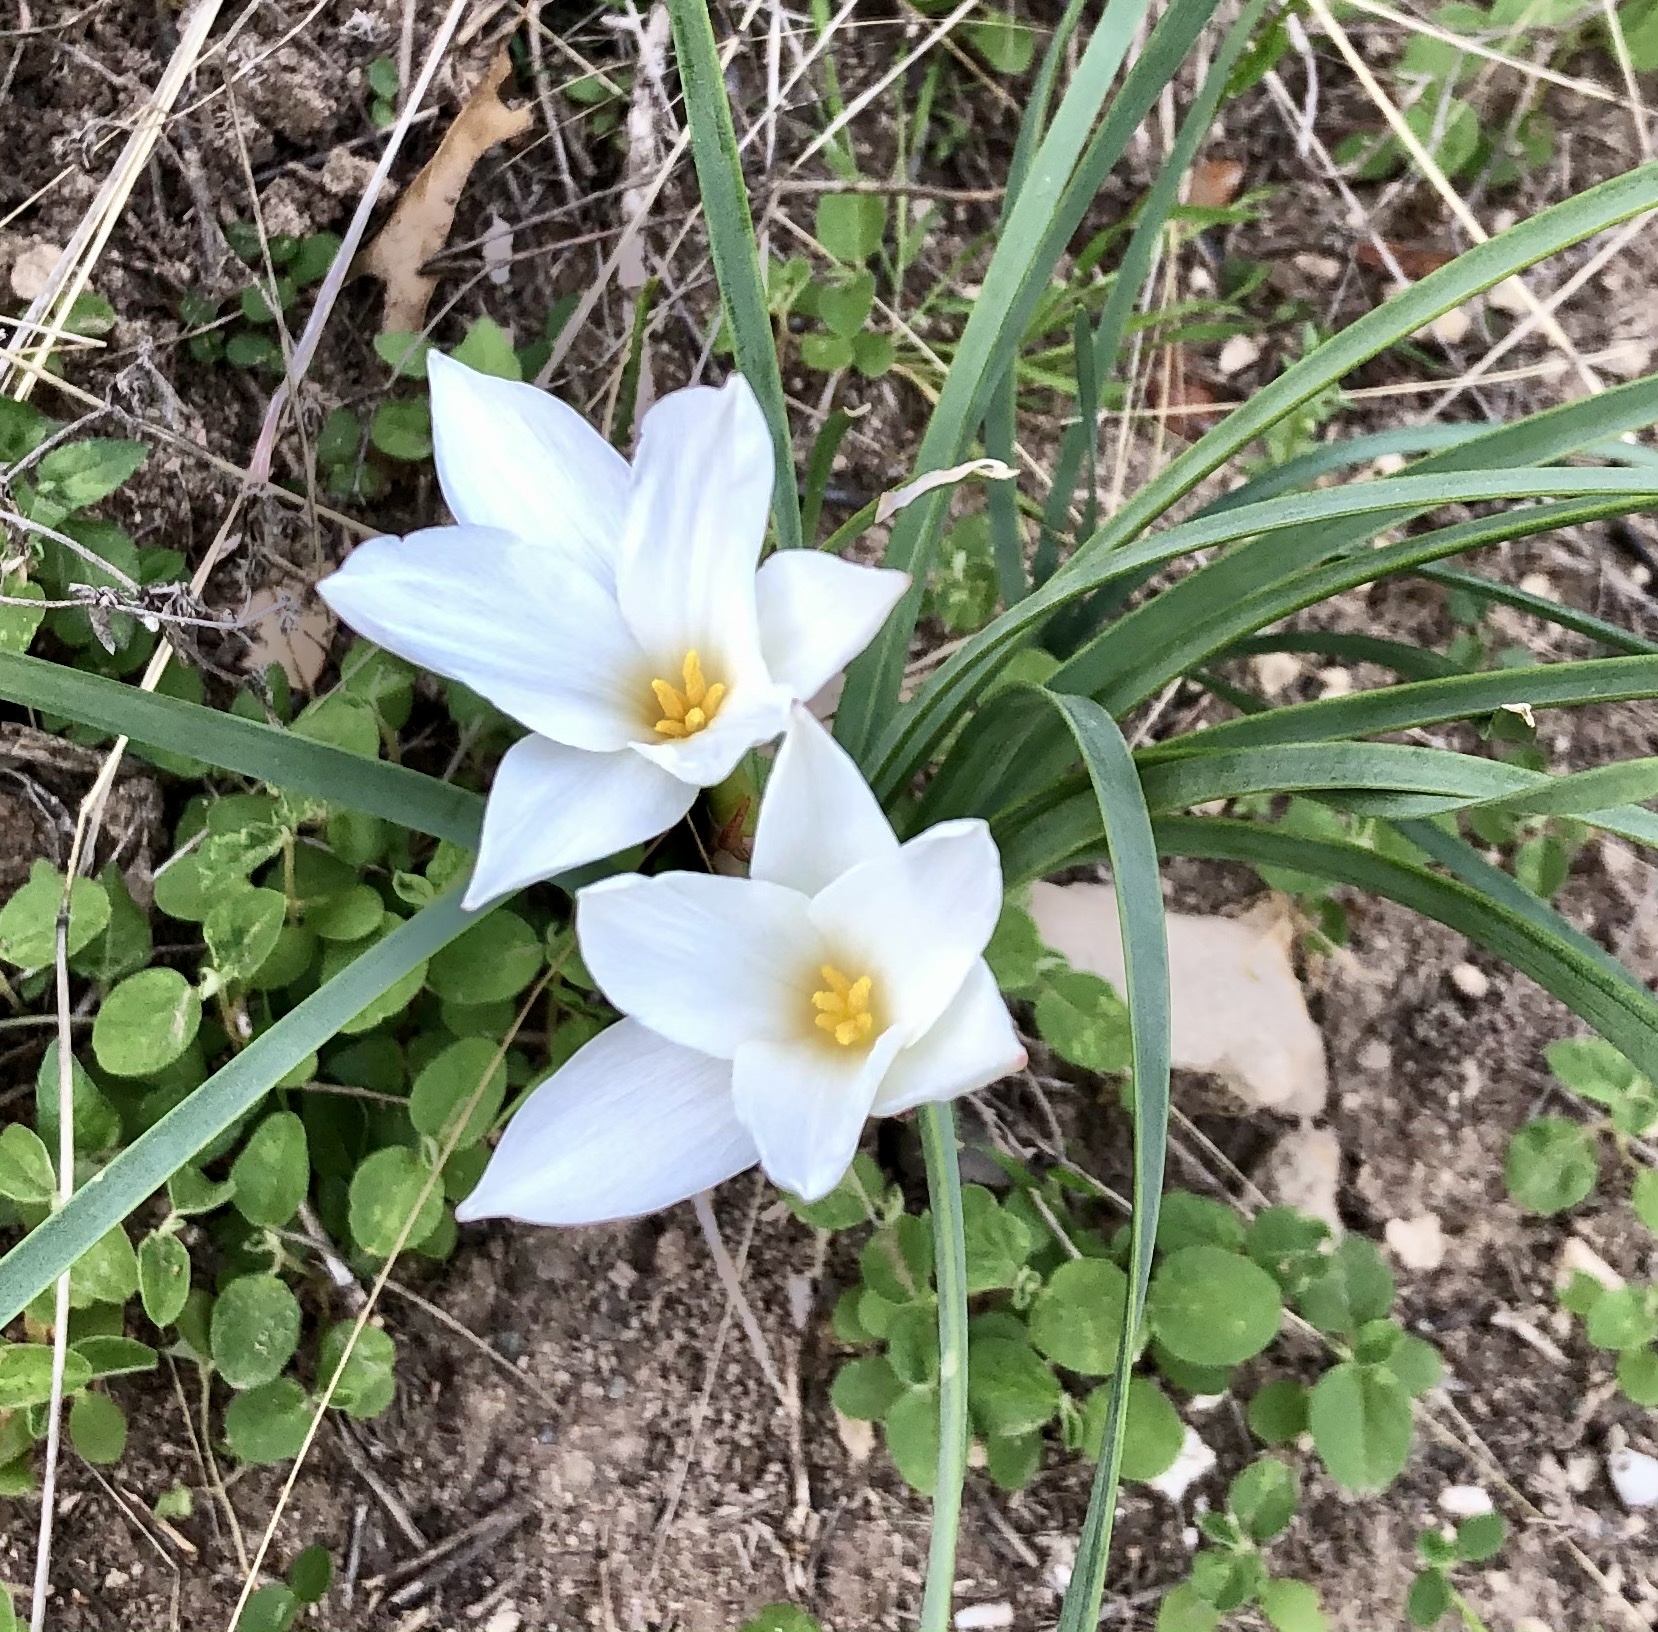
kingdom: Plantae
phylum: Tracheophyta
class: Liliopsida
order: Asparagales
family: Amaryllidaceae
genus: Zephyranthes
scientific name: Zephyranthes drummondii
